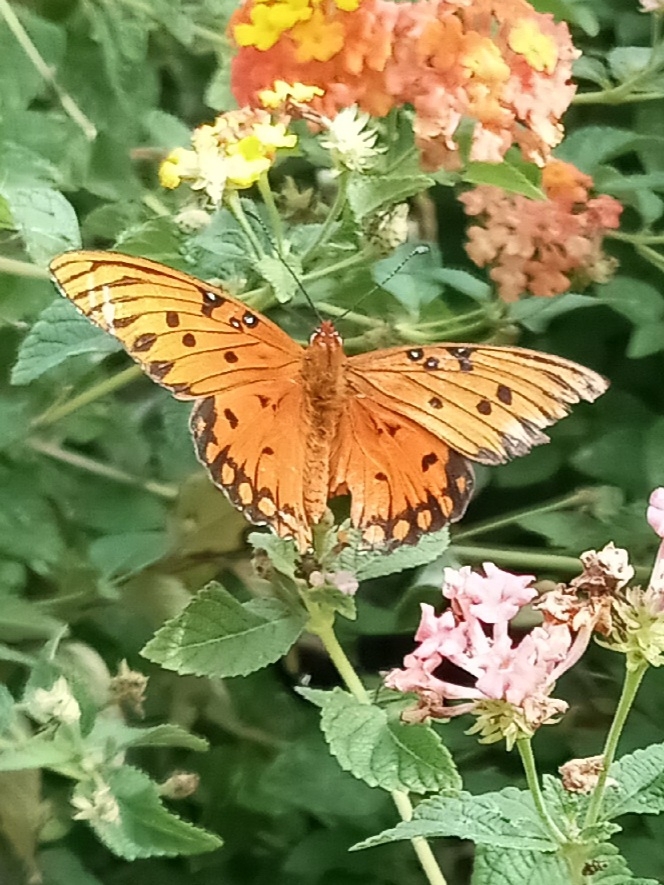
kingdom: Animalia
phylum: Arthropoda
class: Insecta
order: Lepidoptera
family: Nymphalidae
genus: Dione
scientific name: Dione vanillae
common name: Gulf fritillary
